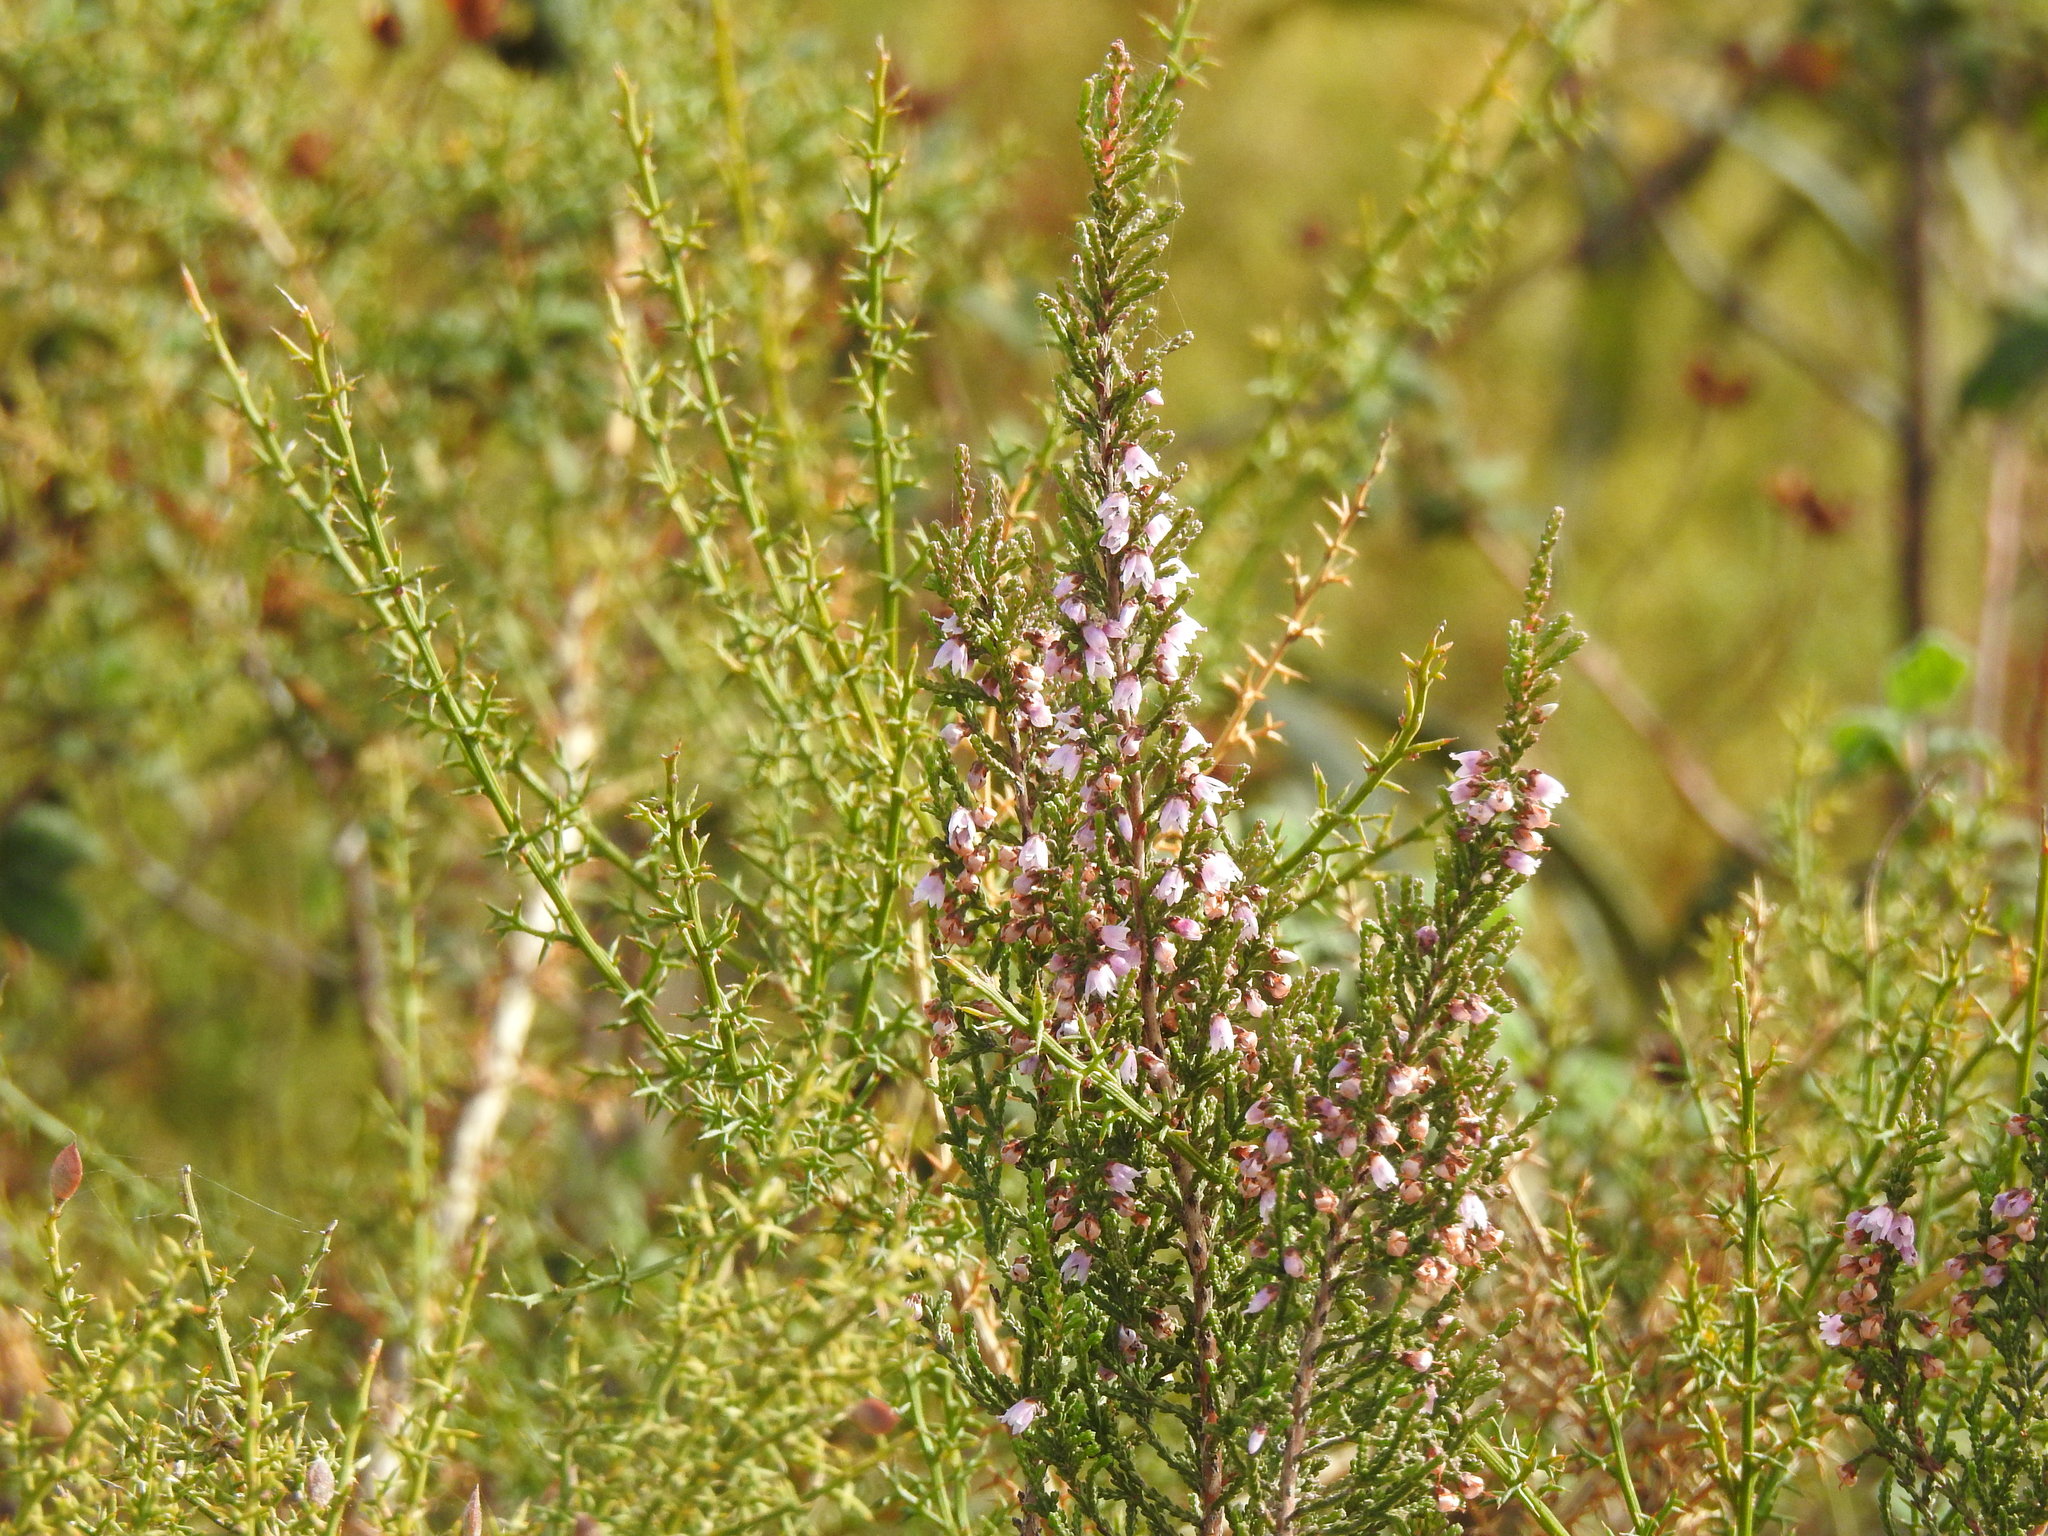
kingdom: Plantae
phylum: Tracheophyta
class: Magnoliopsida
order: Ericales
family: Ericaceae
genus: Calluna
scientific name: Calluna vulgaris
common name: Heather
